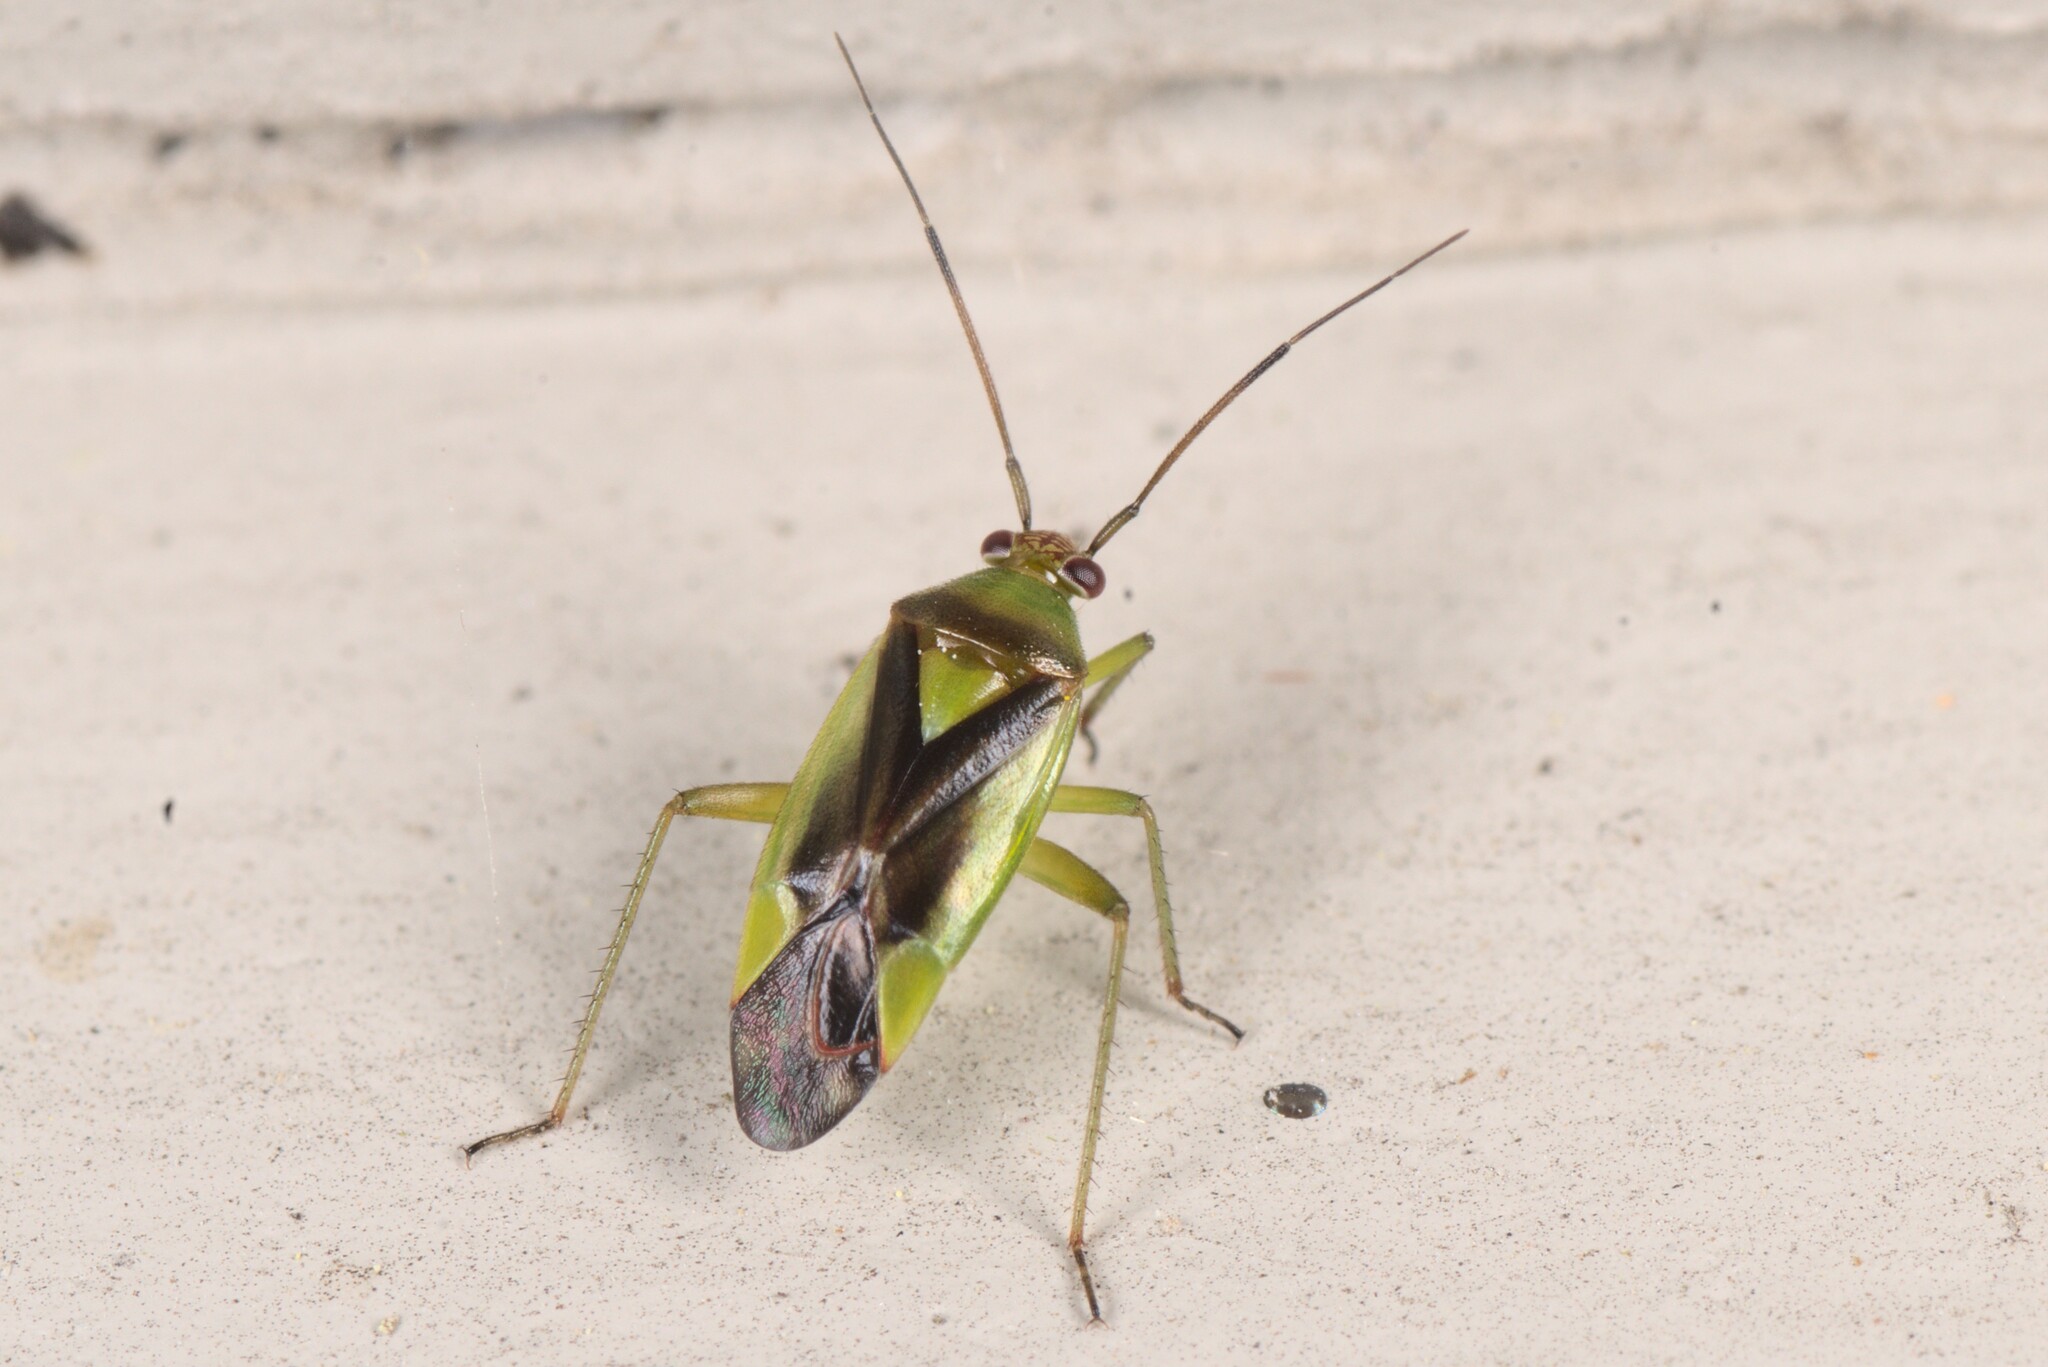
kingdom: Animalia
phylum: Arthropoda
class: Insecta
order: Hemiptera
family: Miridae
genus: Tuicoris
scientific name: Tuicoris lipurus
